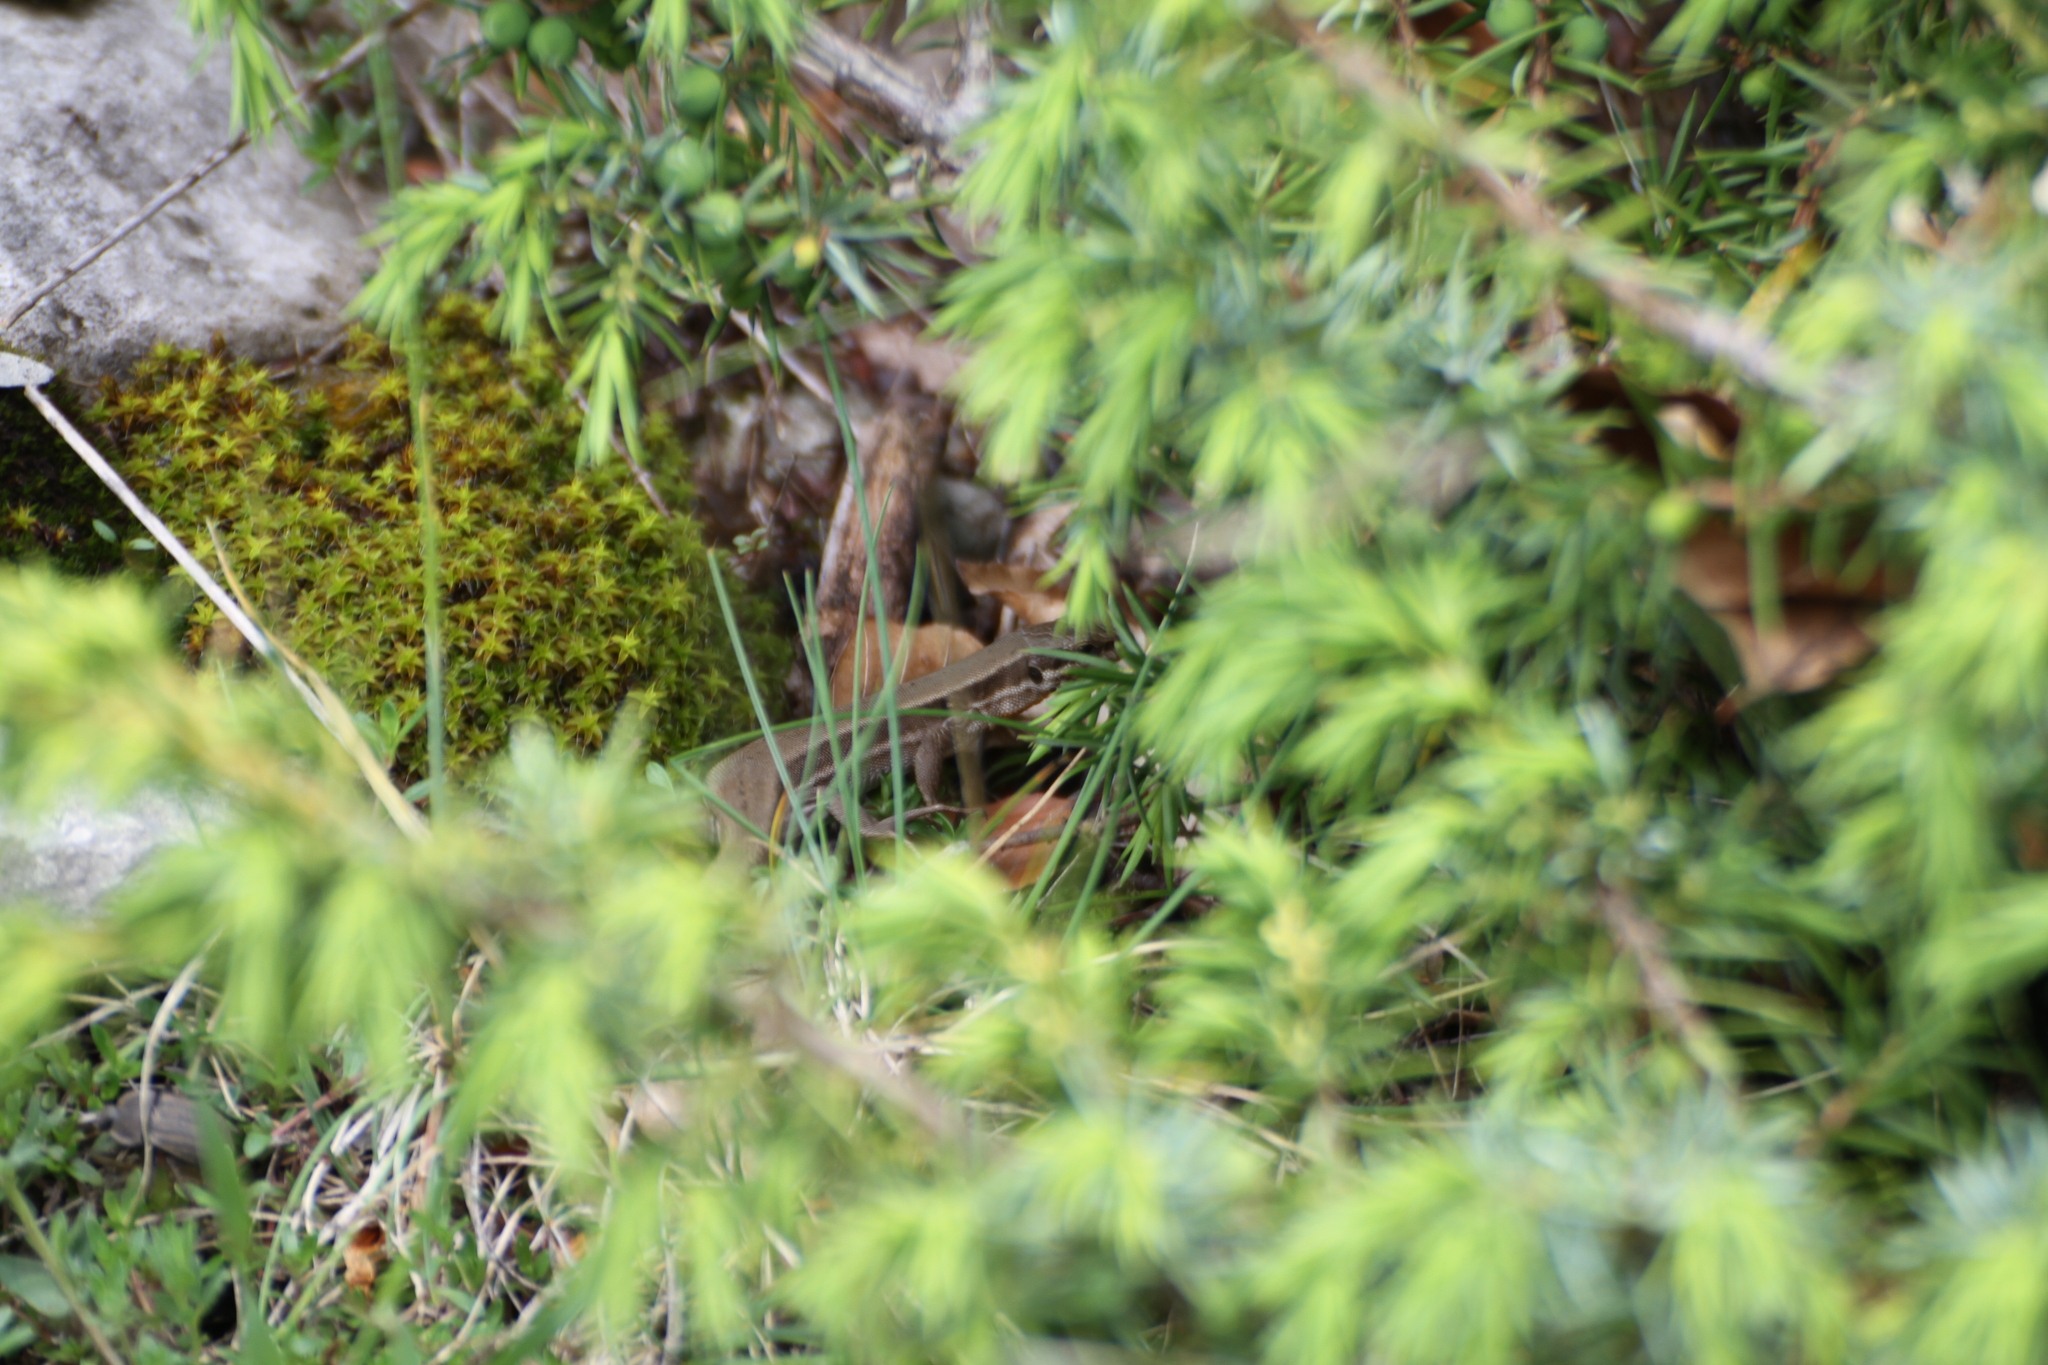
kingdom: Animalia
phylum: Chordata
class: Squamata
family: Lacertidae
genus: Podarcis
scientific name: Podarcis muralis
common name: Common wall lizard
